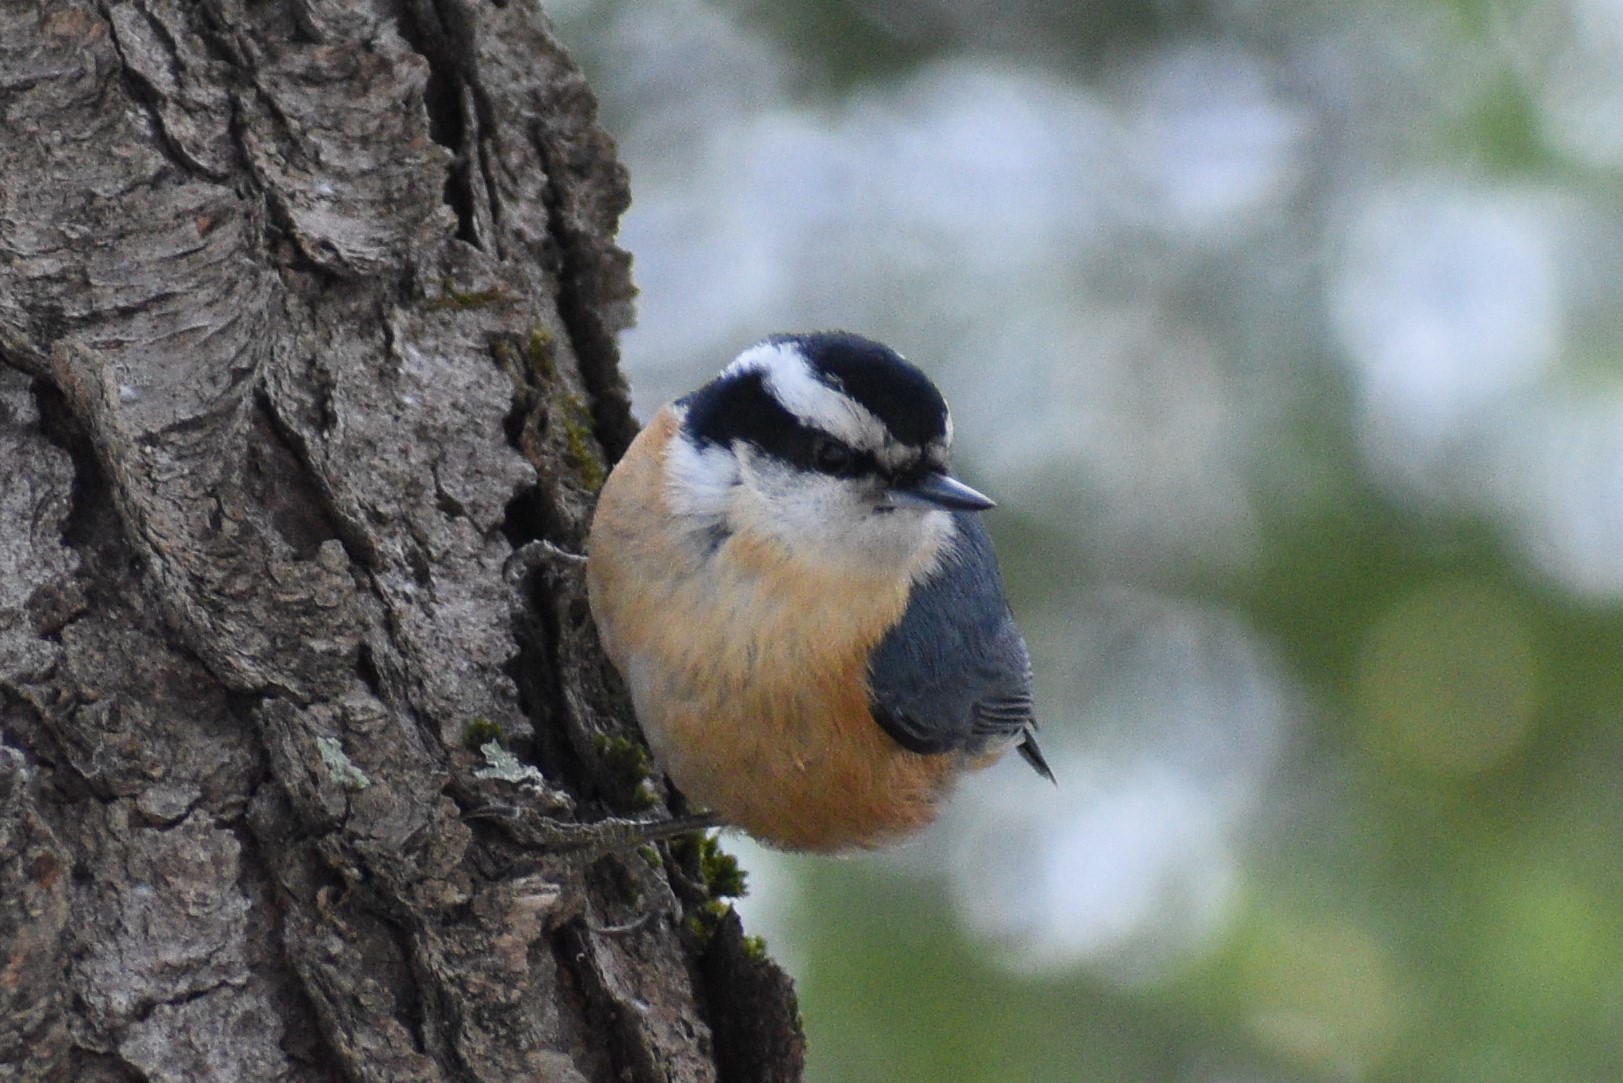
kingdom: Animalia
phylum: Chordata
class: Aves
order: Passeriformes
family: Sittidae
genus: Sitta
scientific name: Sitta canadensis
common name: Red-breasted nuthatch
